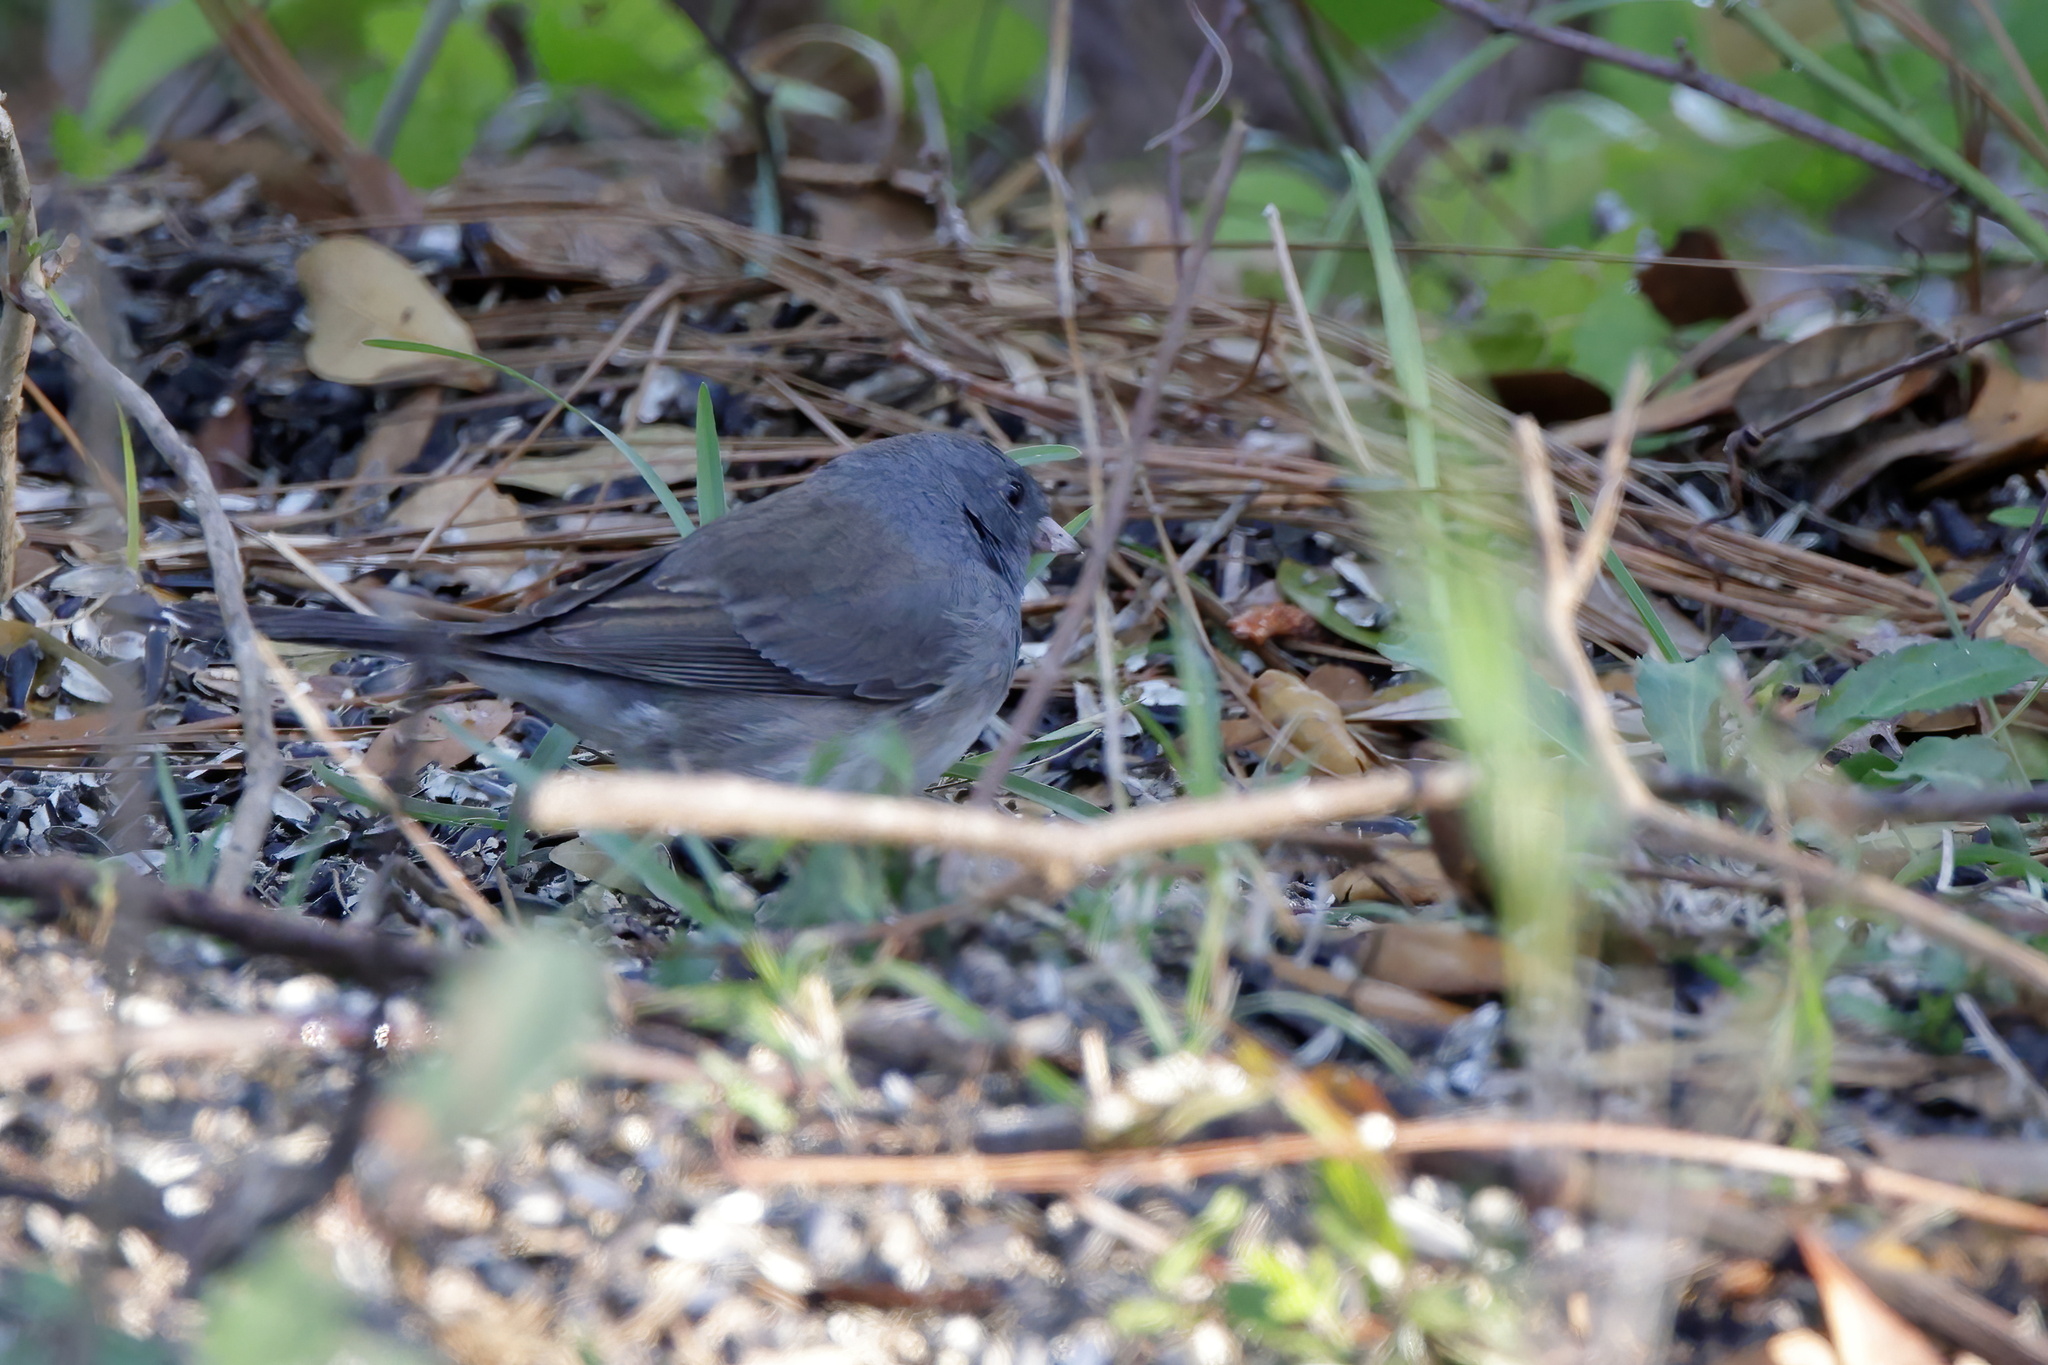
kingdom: Animalia
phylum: Chordata
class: Aves
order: Passeriformes
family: Passerellidae
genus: Junco
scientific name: Junco hyemalis
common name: Dark-eyed junco
